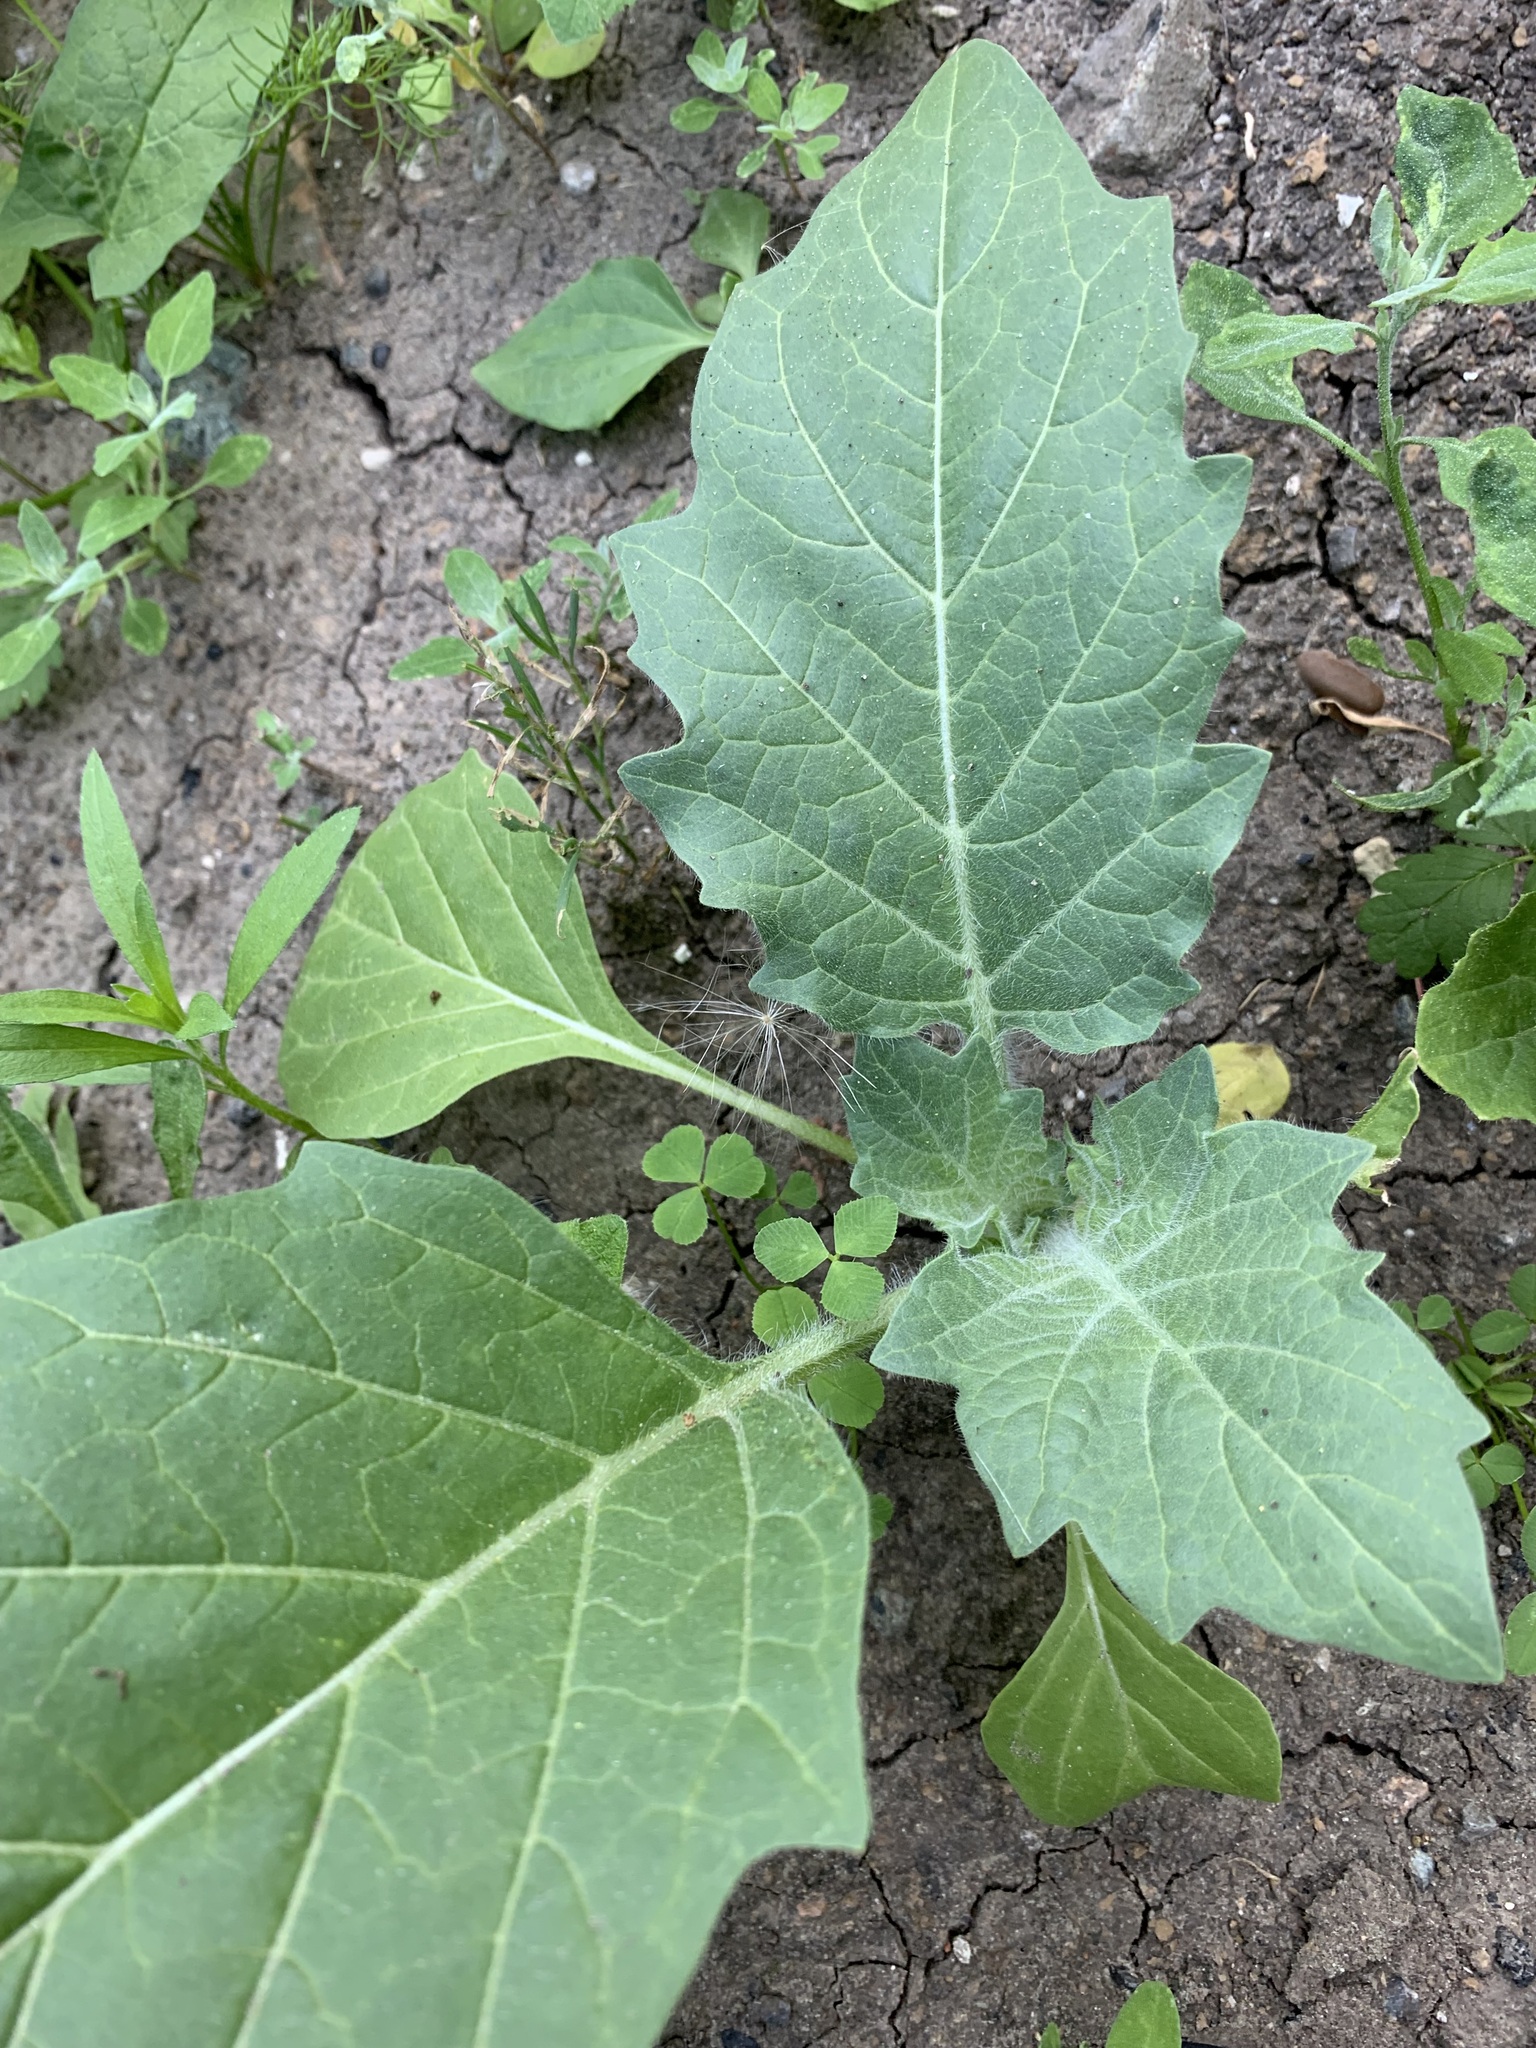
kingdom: Plantae
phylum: Tracheophyta
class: Magnoliopsida
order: Solanales
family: Solanaceae
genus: Hyoscyamus
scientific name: Hyoscyamus niger
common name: Henbane
